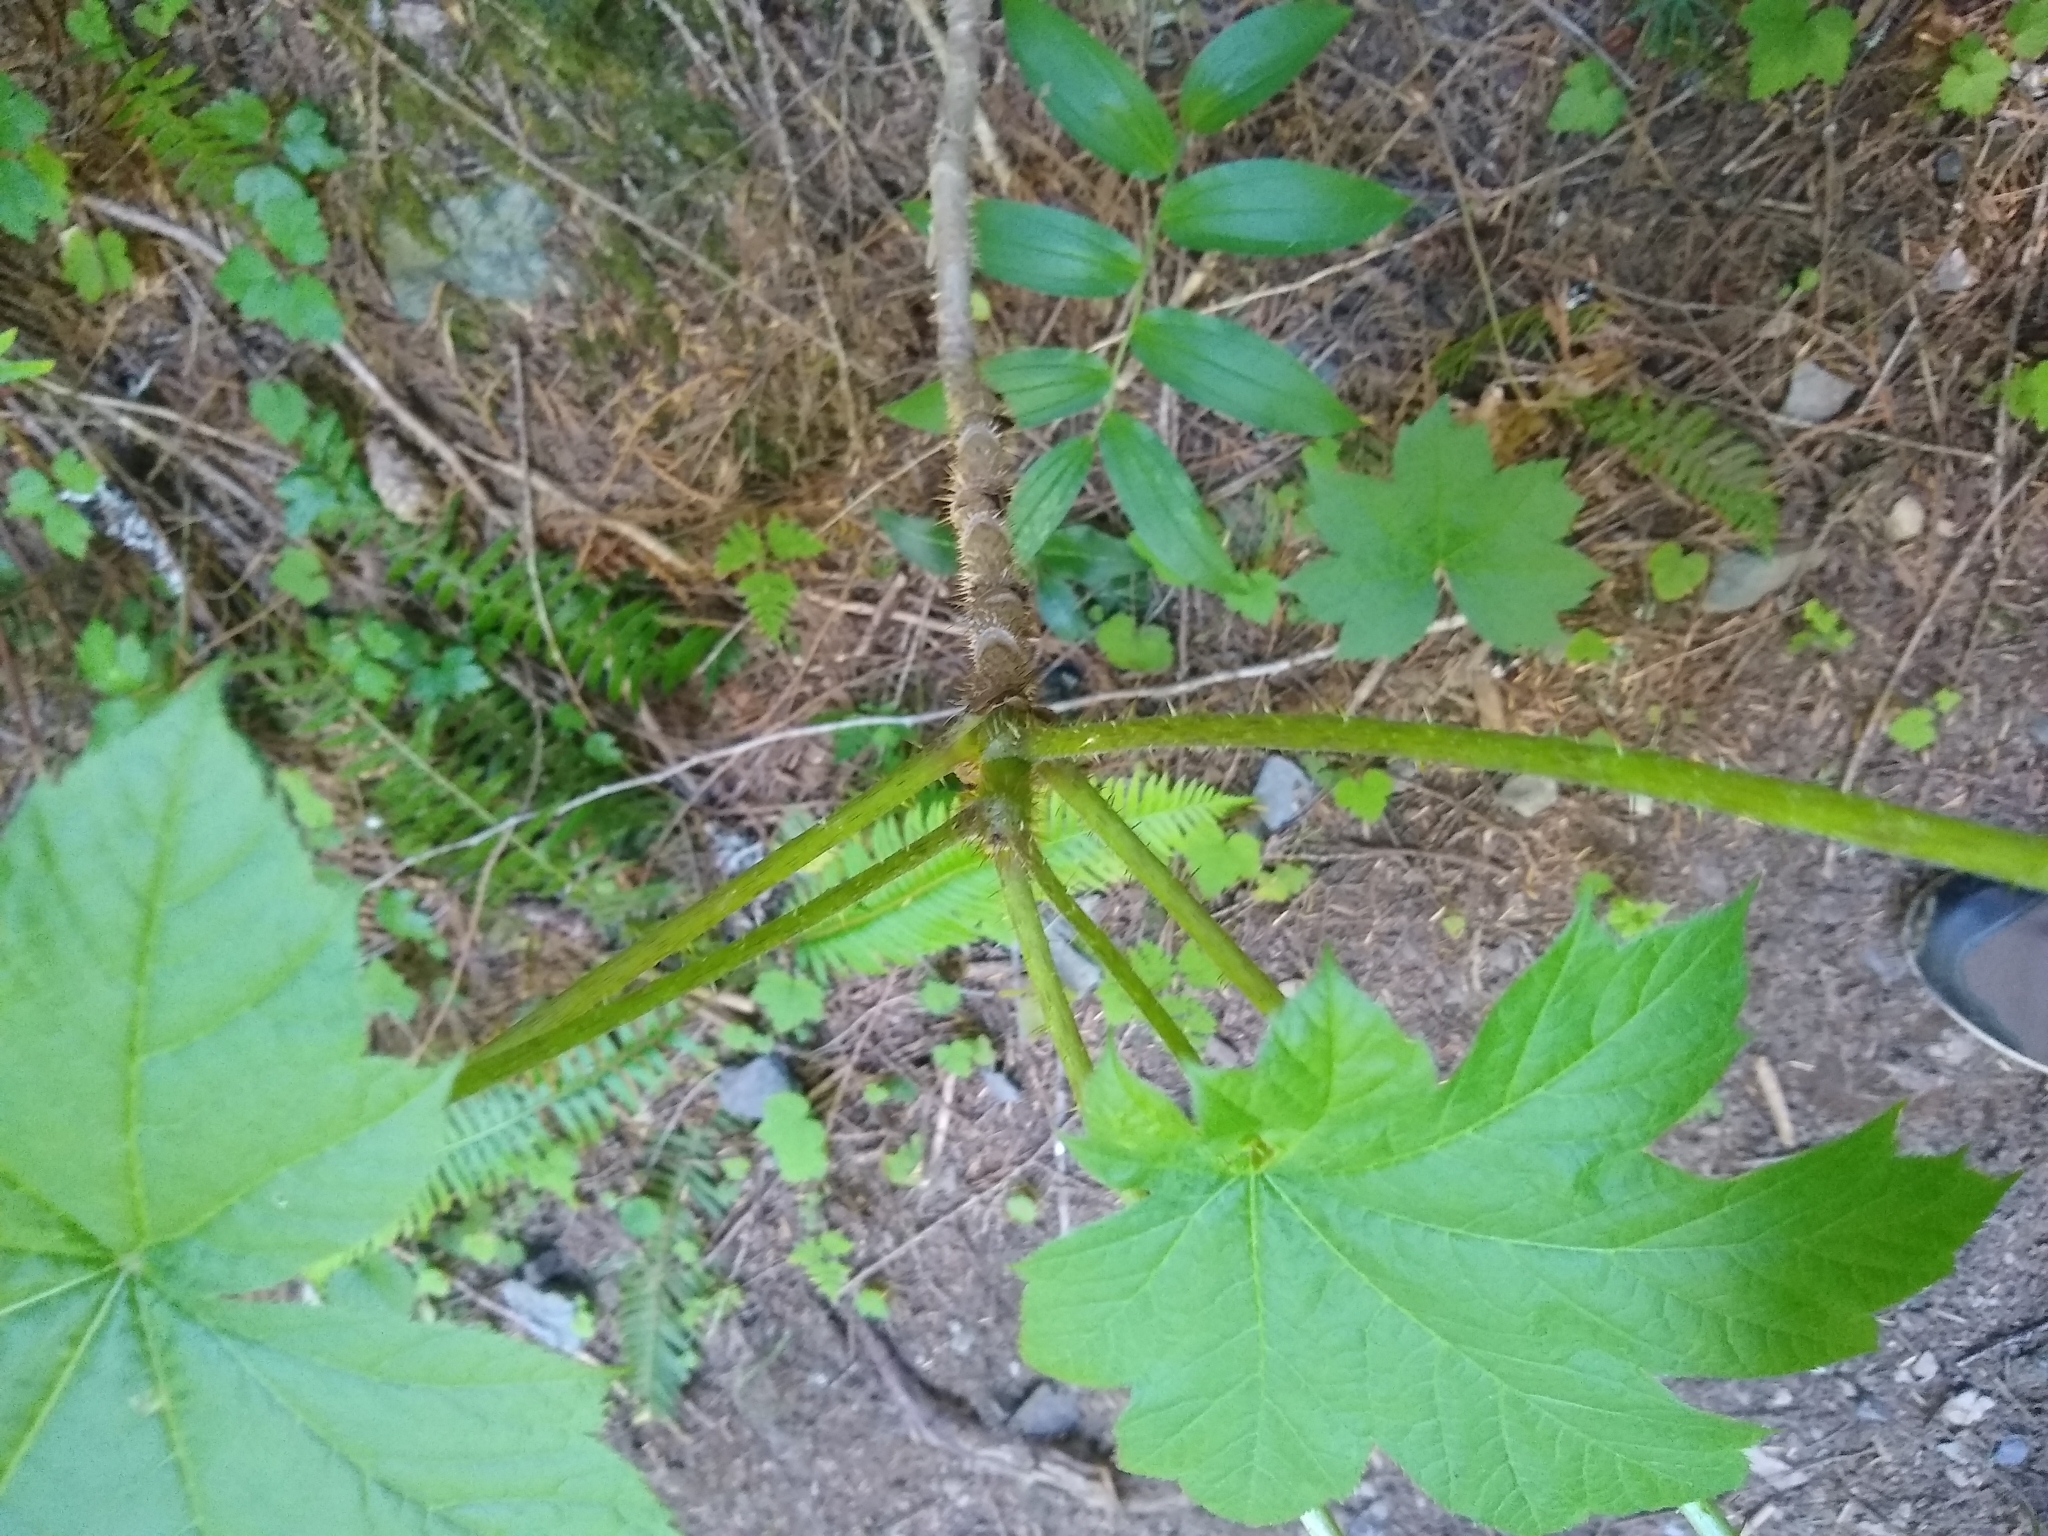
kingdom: Plantae
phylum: Tracheophyta
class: Magnoliopsida
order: Apiales
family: Araliaceae
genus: Oplopanax
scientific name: Oplopanax horridus
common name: Devil's walking-stick
